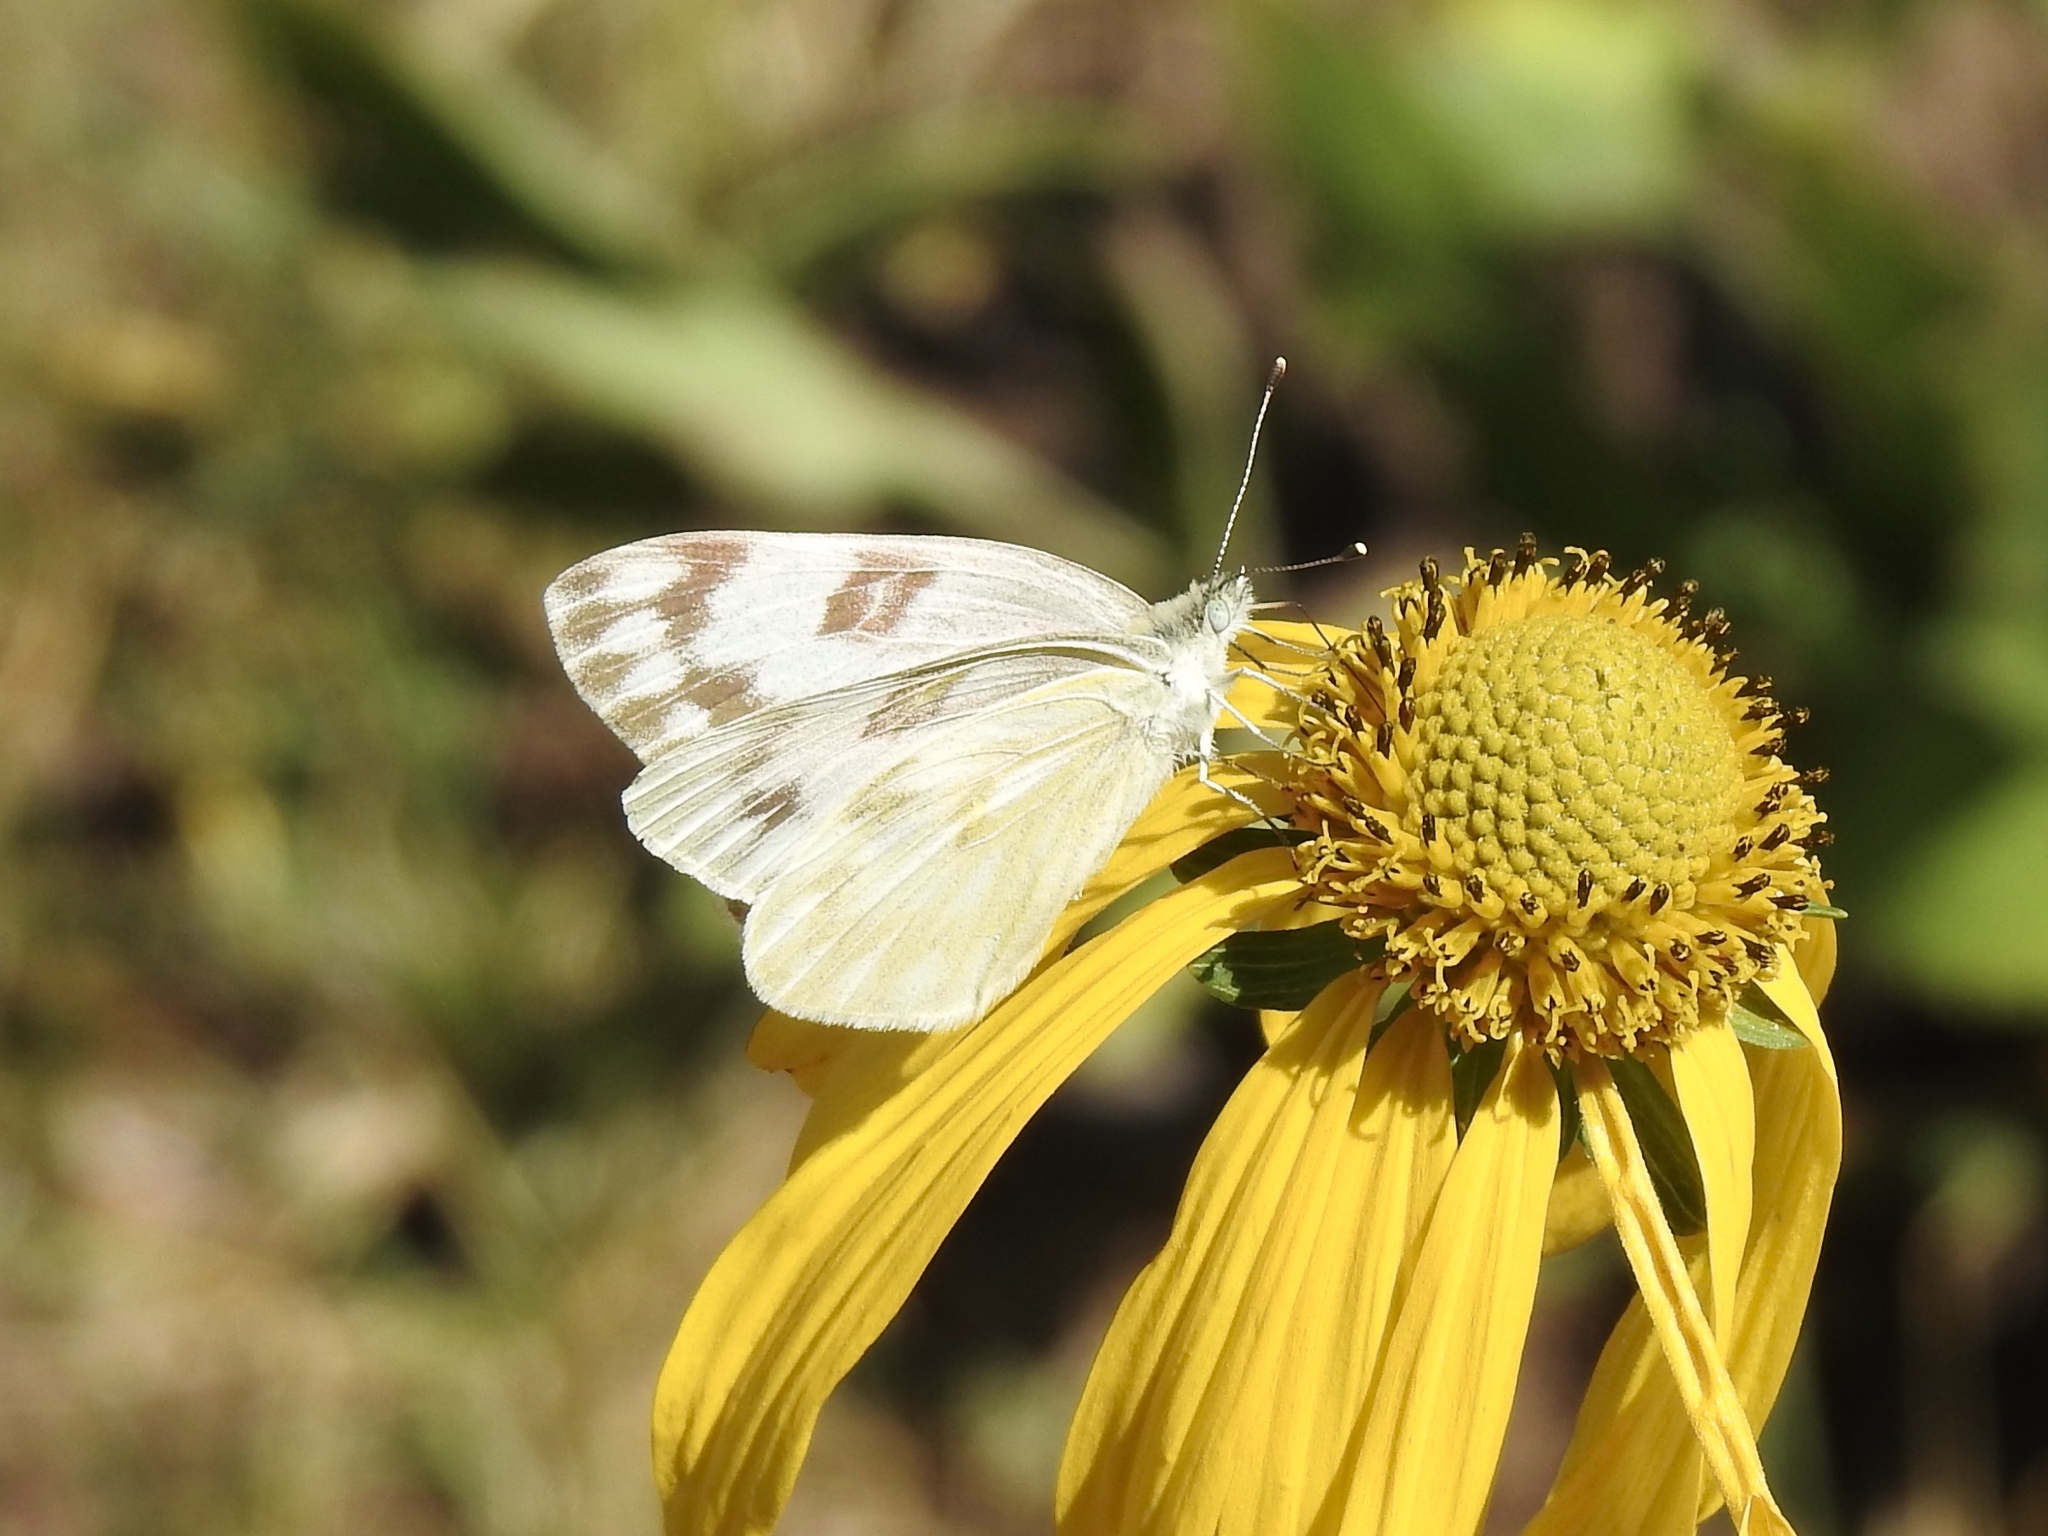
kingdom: Animalia
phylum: Arthropoda
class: Insecta
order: Lepidoptera
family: Pieridae
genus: Pontia
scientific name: Pontia protodice
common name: Checkered white
